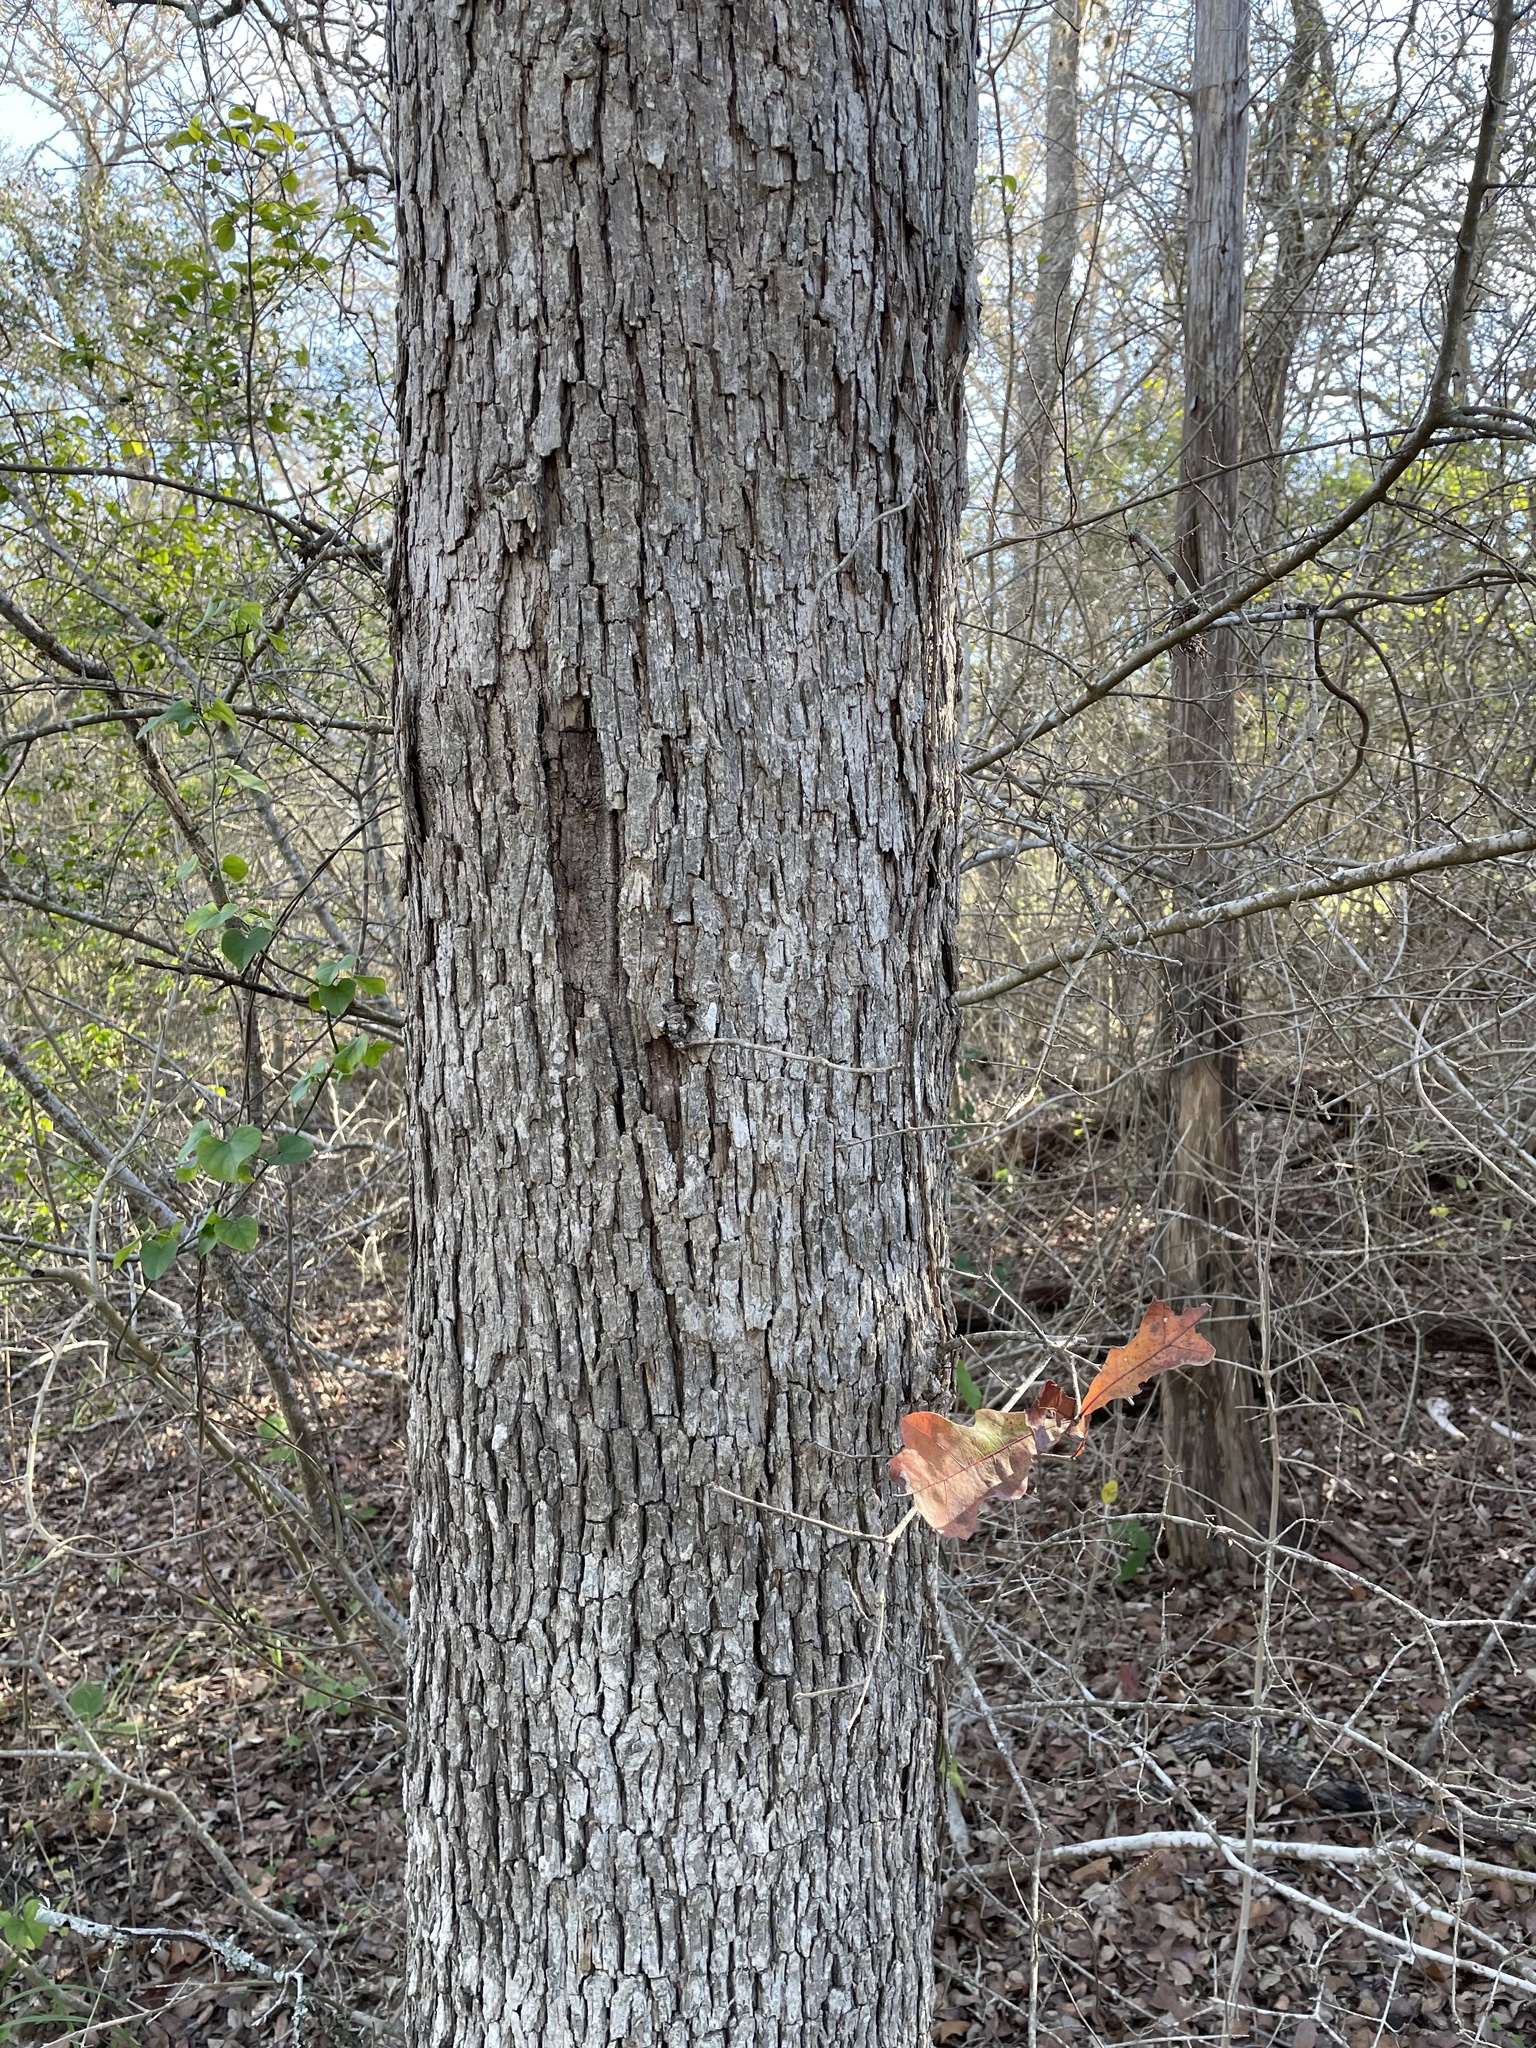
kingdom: Plantae
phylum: Tracheophyta
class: Magnoliopsida
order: Fagales
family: Fagaceae
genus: Quercus
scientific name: Quercus sinuata
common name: Durand oak
